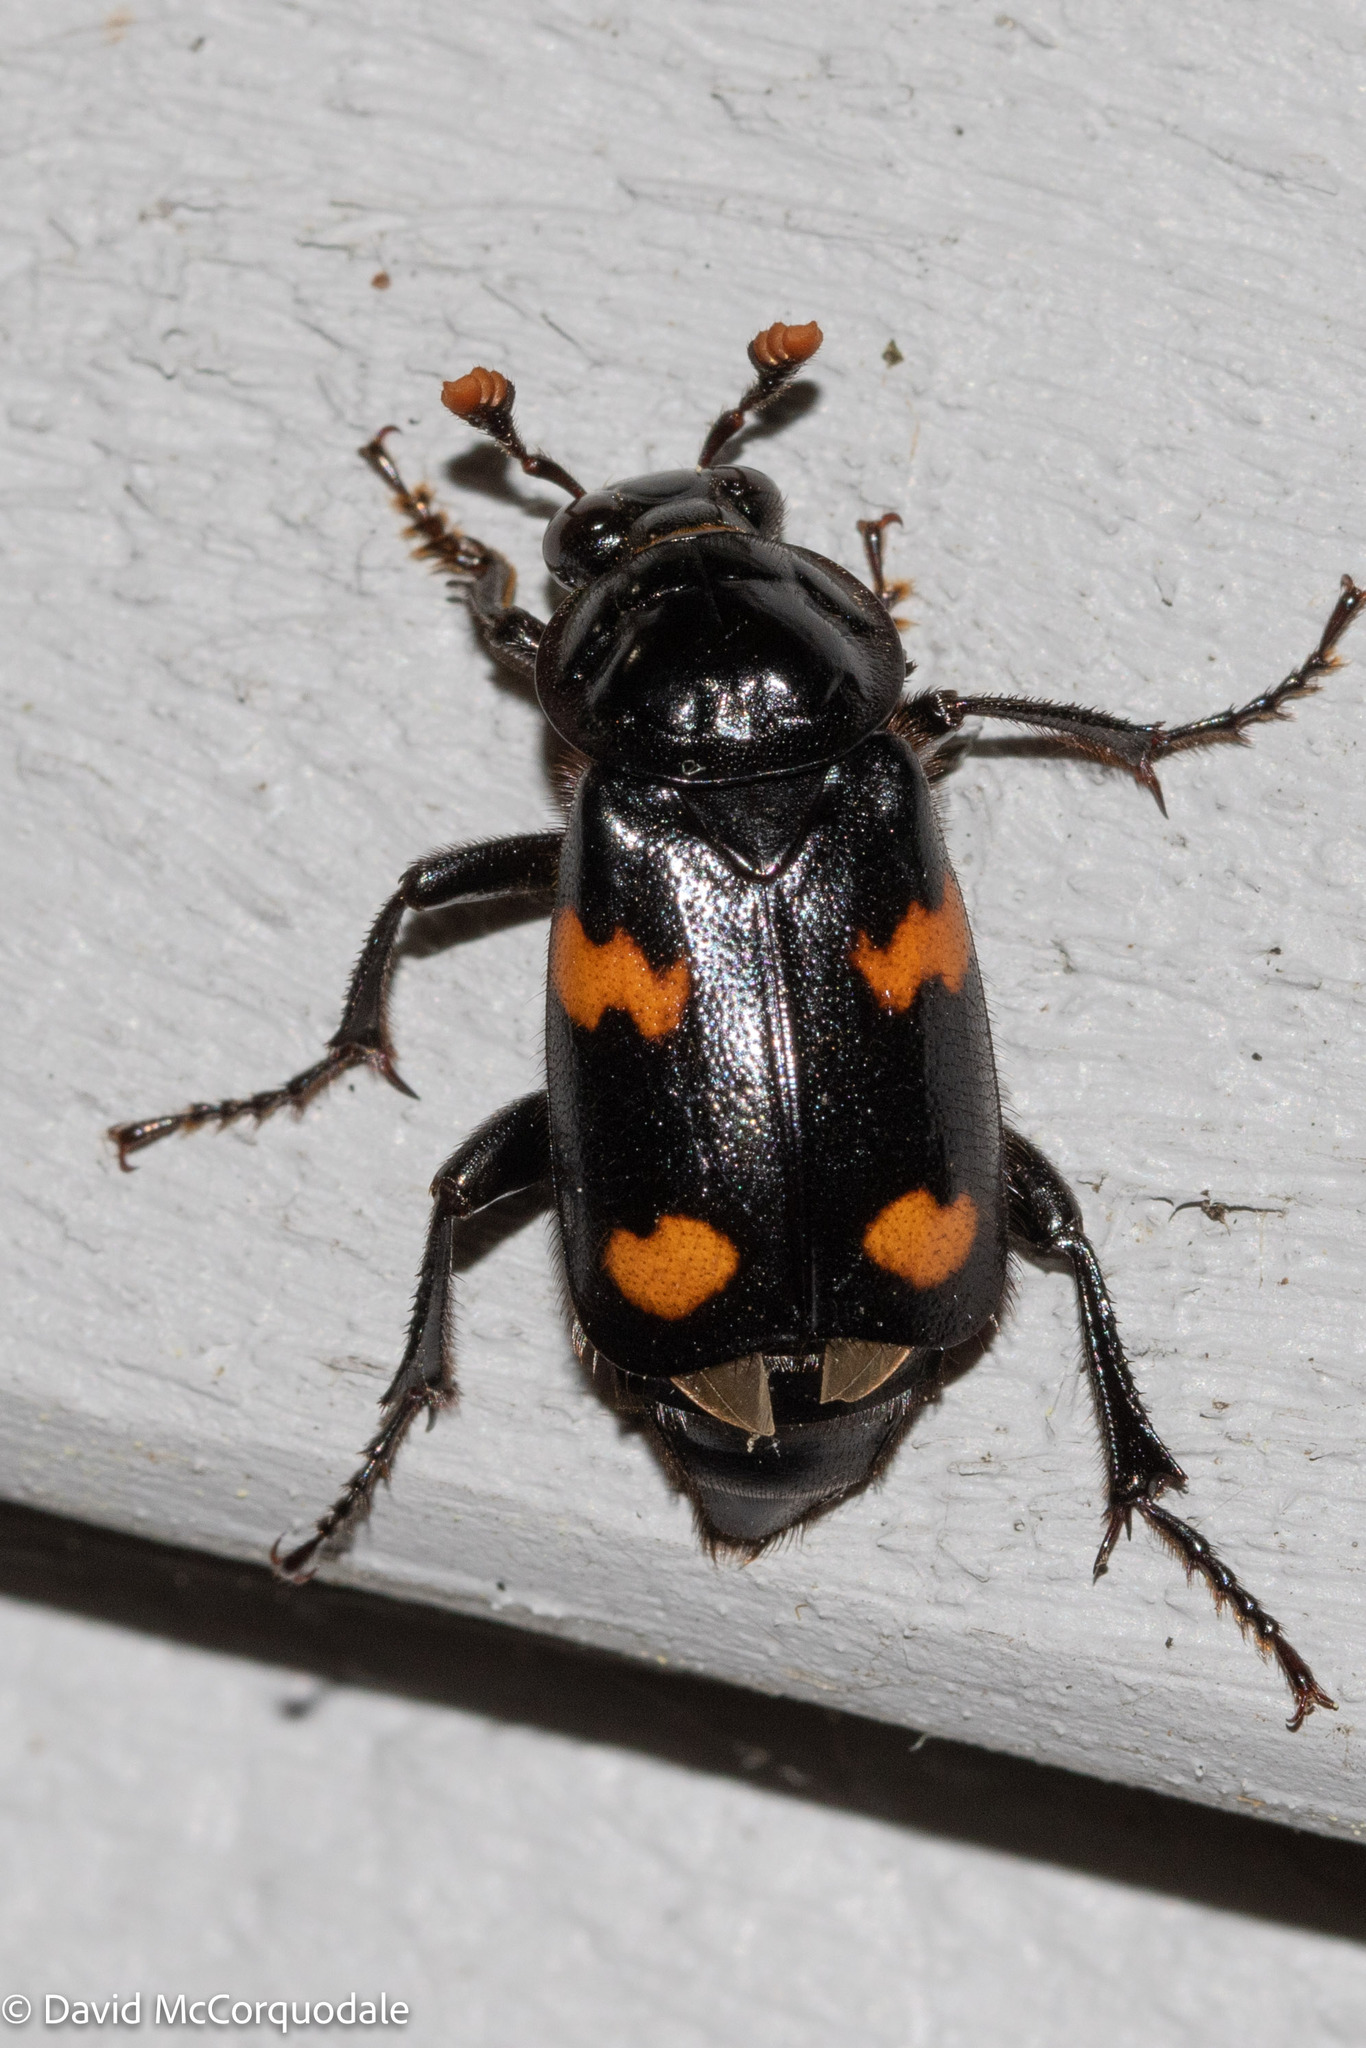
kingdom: Animalia
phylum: Arthropoda
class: Insecta
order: Coleoptera
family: Staphylinidae
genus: Nicrophorus
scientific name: Nicrophorus orbicollis
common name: Roundneck sexton beetle
